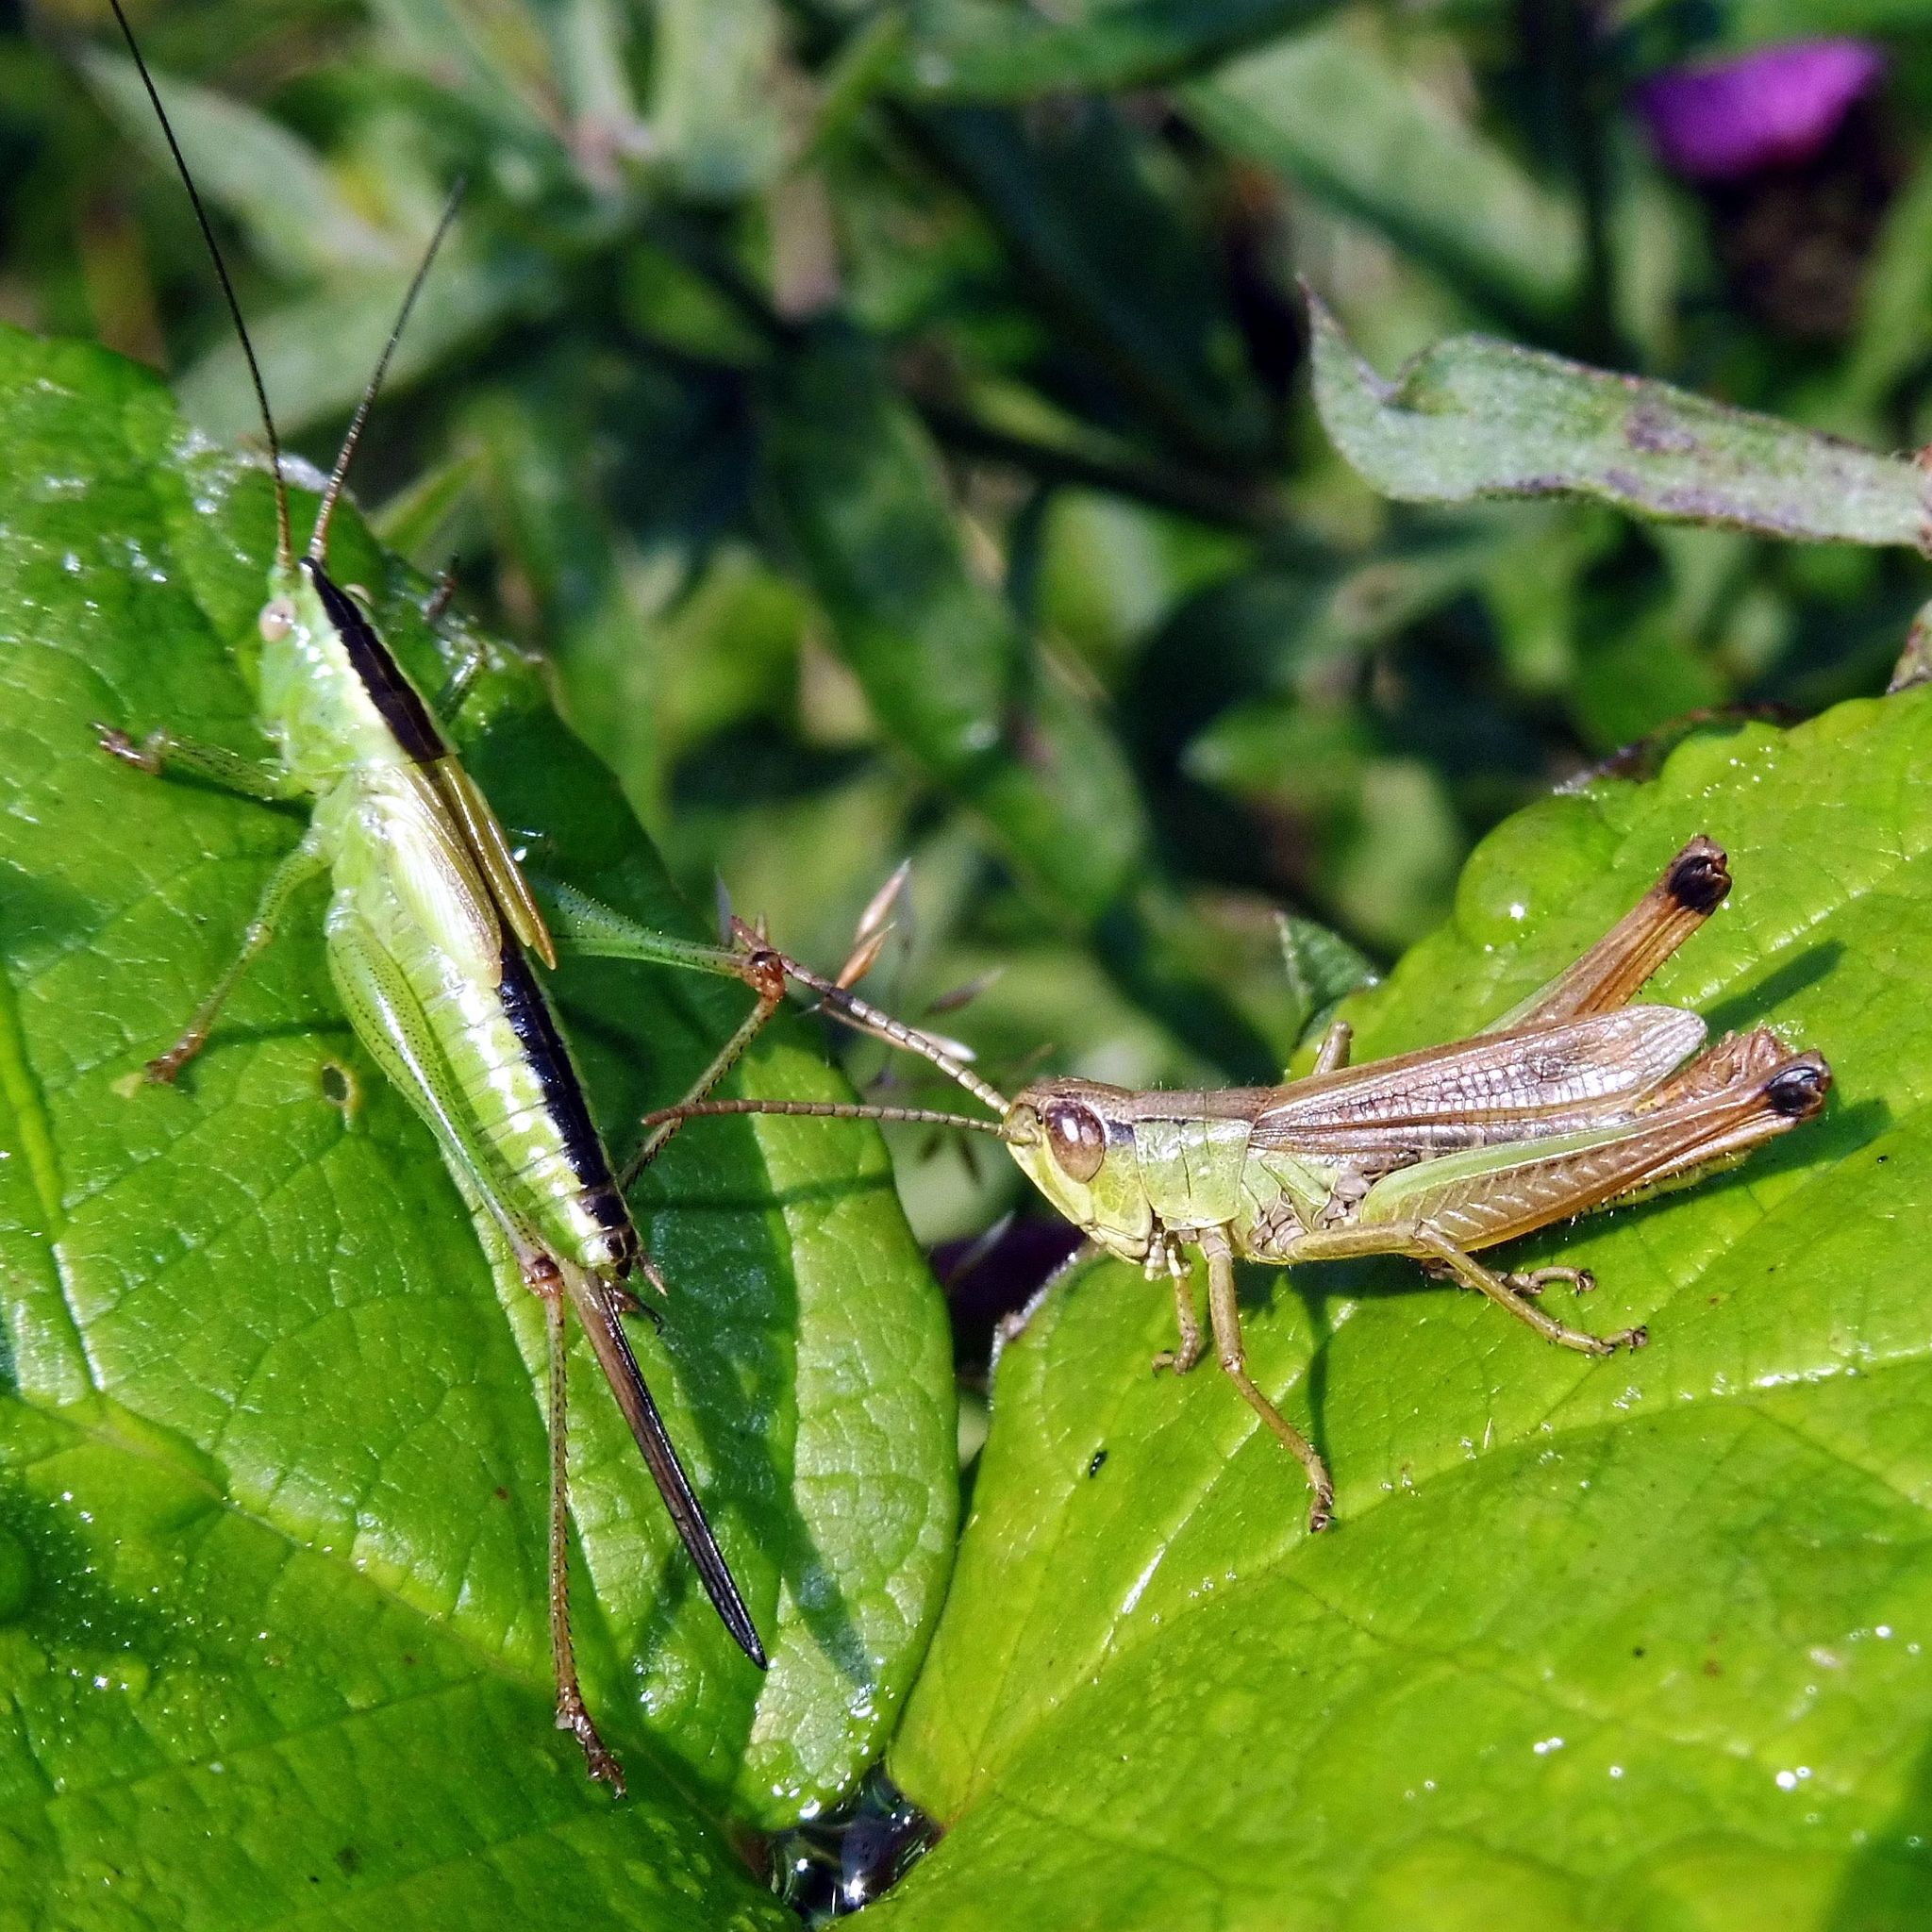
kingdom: Animalia
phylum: Arthropoda
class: Insecta
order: Orthoptera
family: Acrididae
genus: Pseudochorthippus
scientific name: Pseudochorthippus parallelus
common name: Meadow grasshopper
